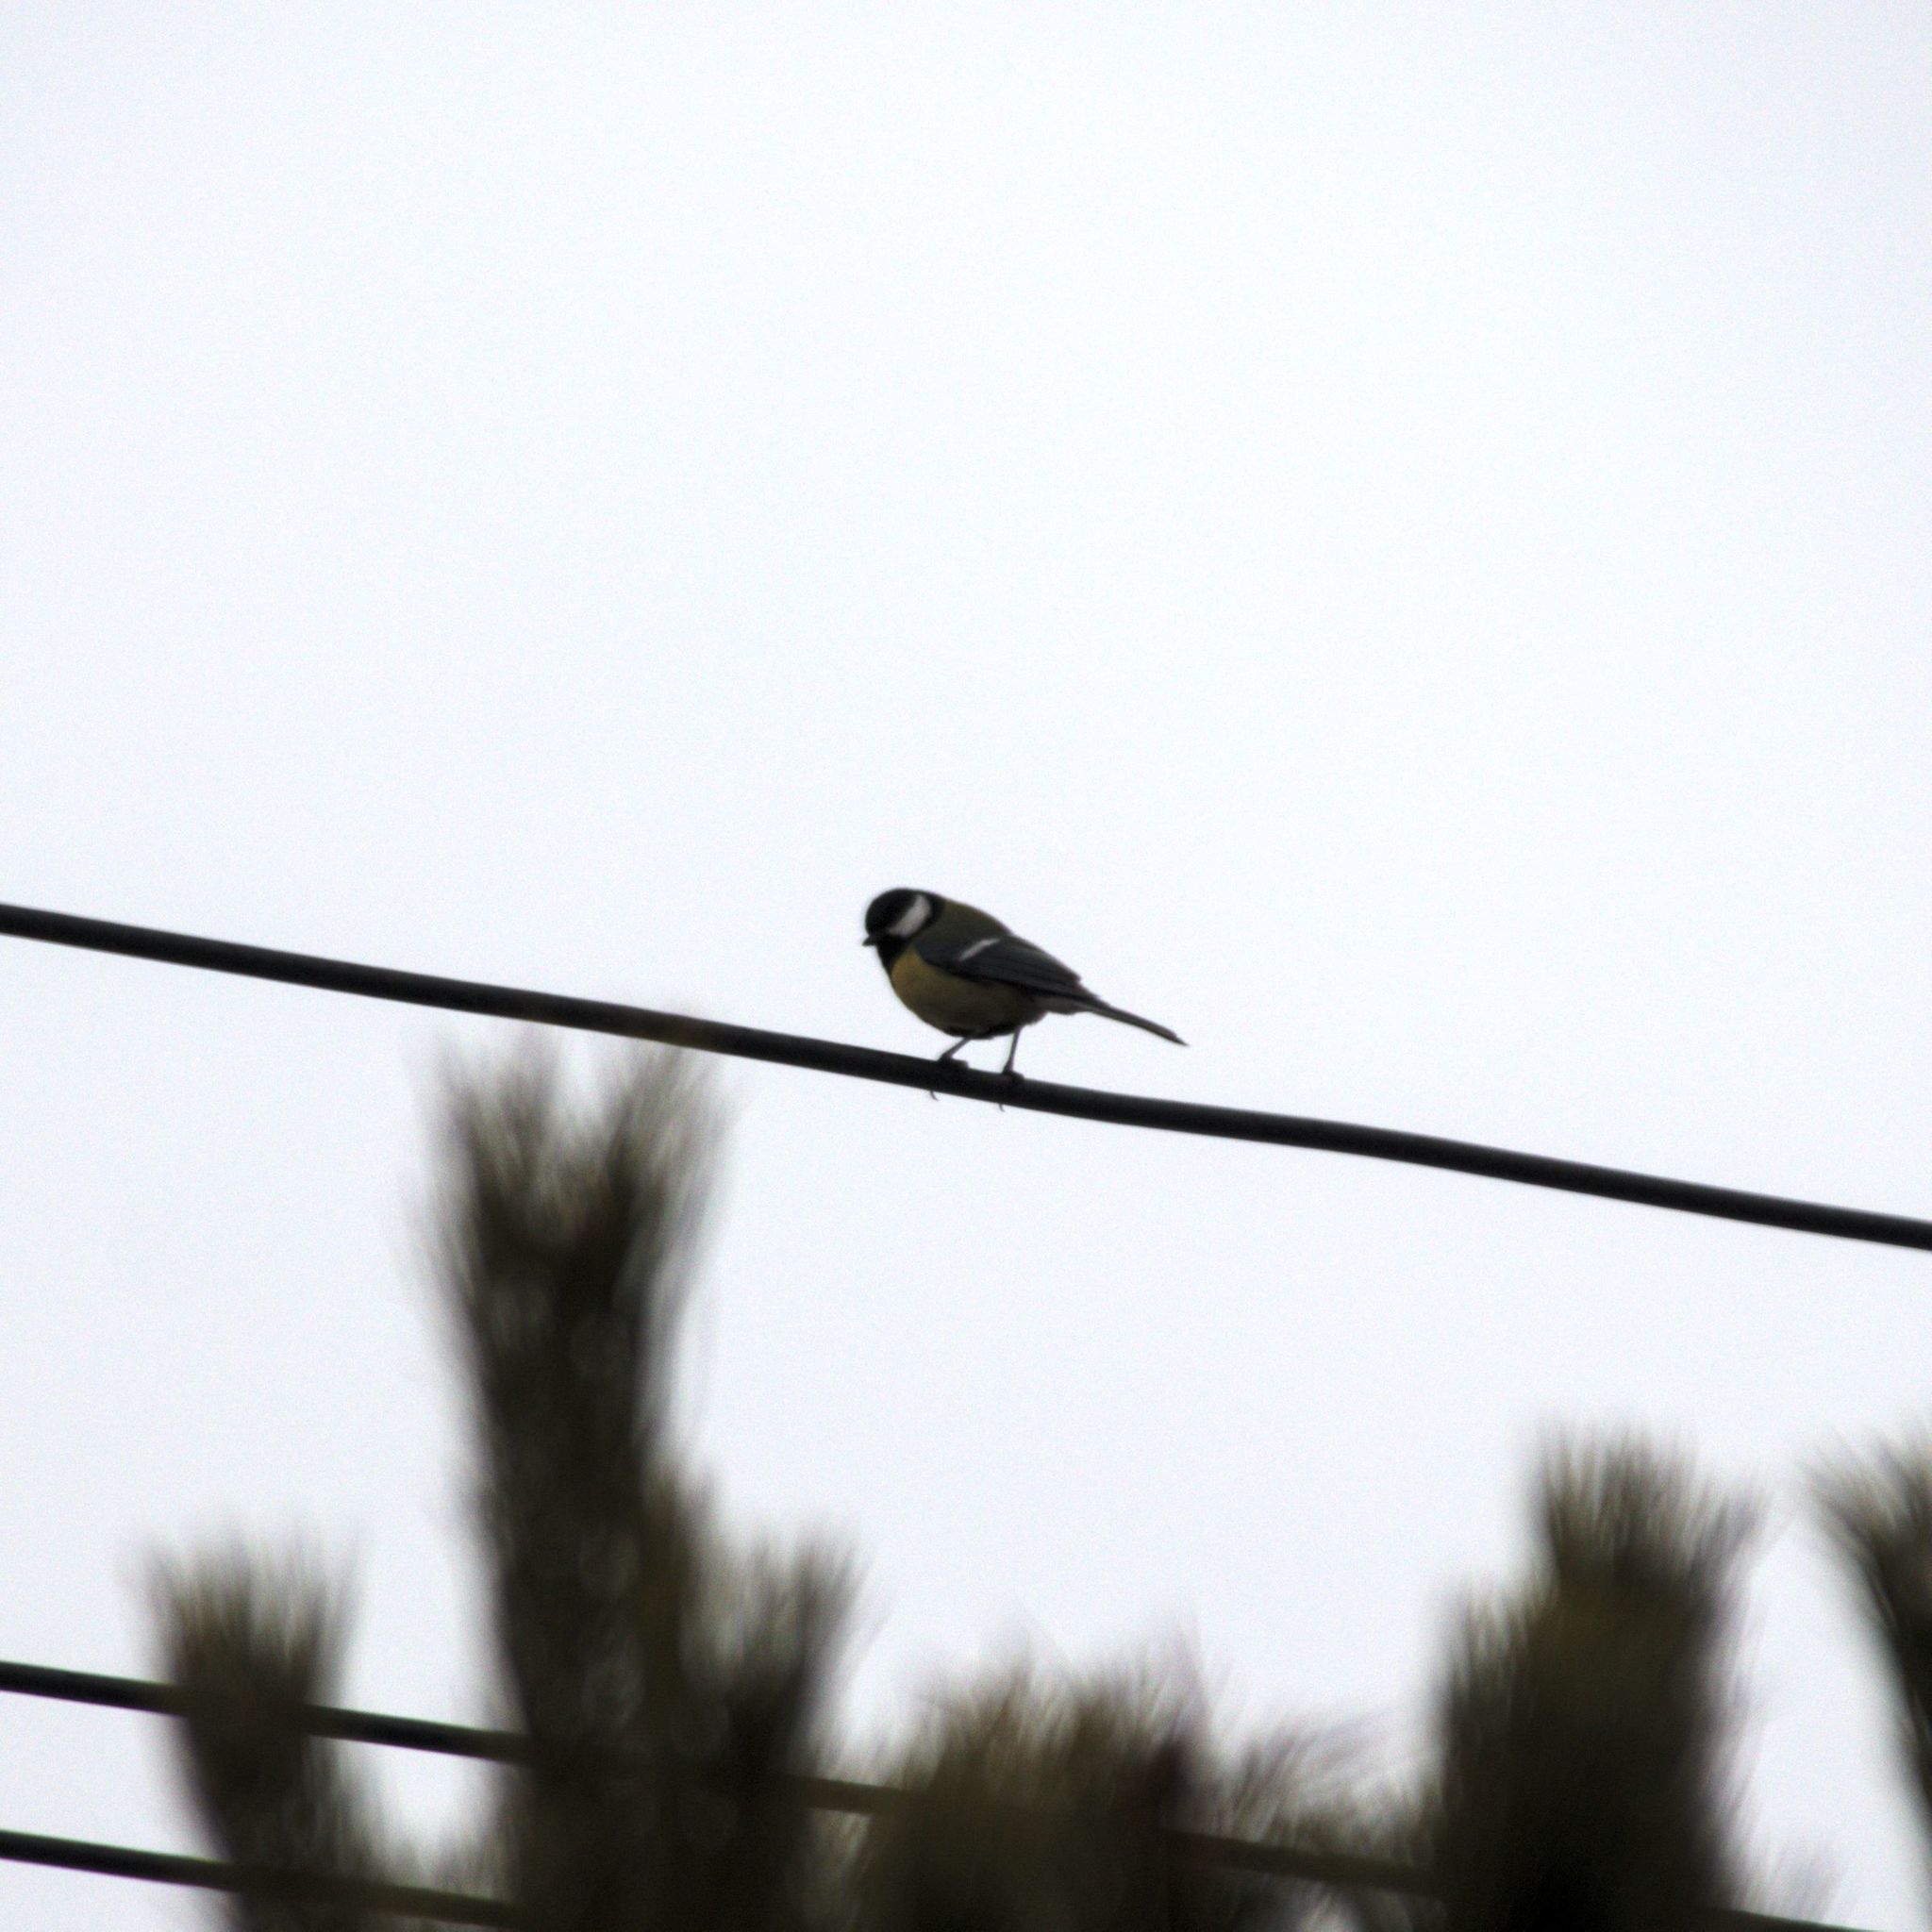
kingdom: Animalia
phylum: Chordata
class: Aves
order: Passeriformes
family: Paridae
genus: Parus
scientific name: Parus major
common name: Great tit
